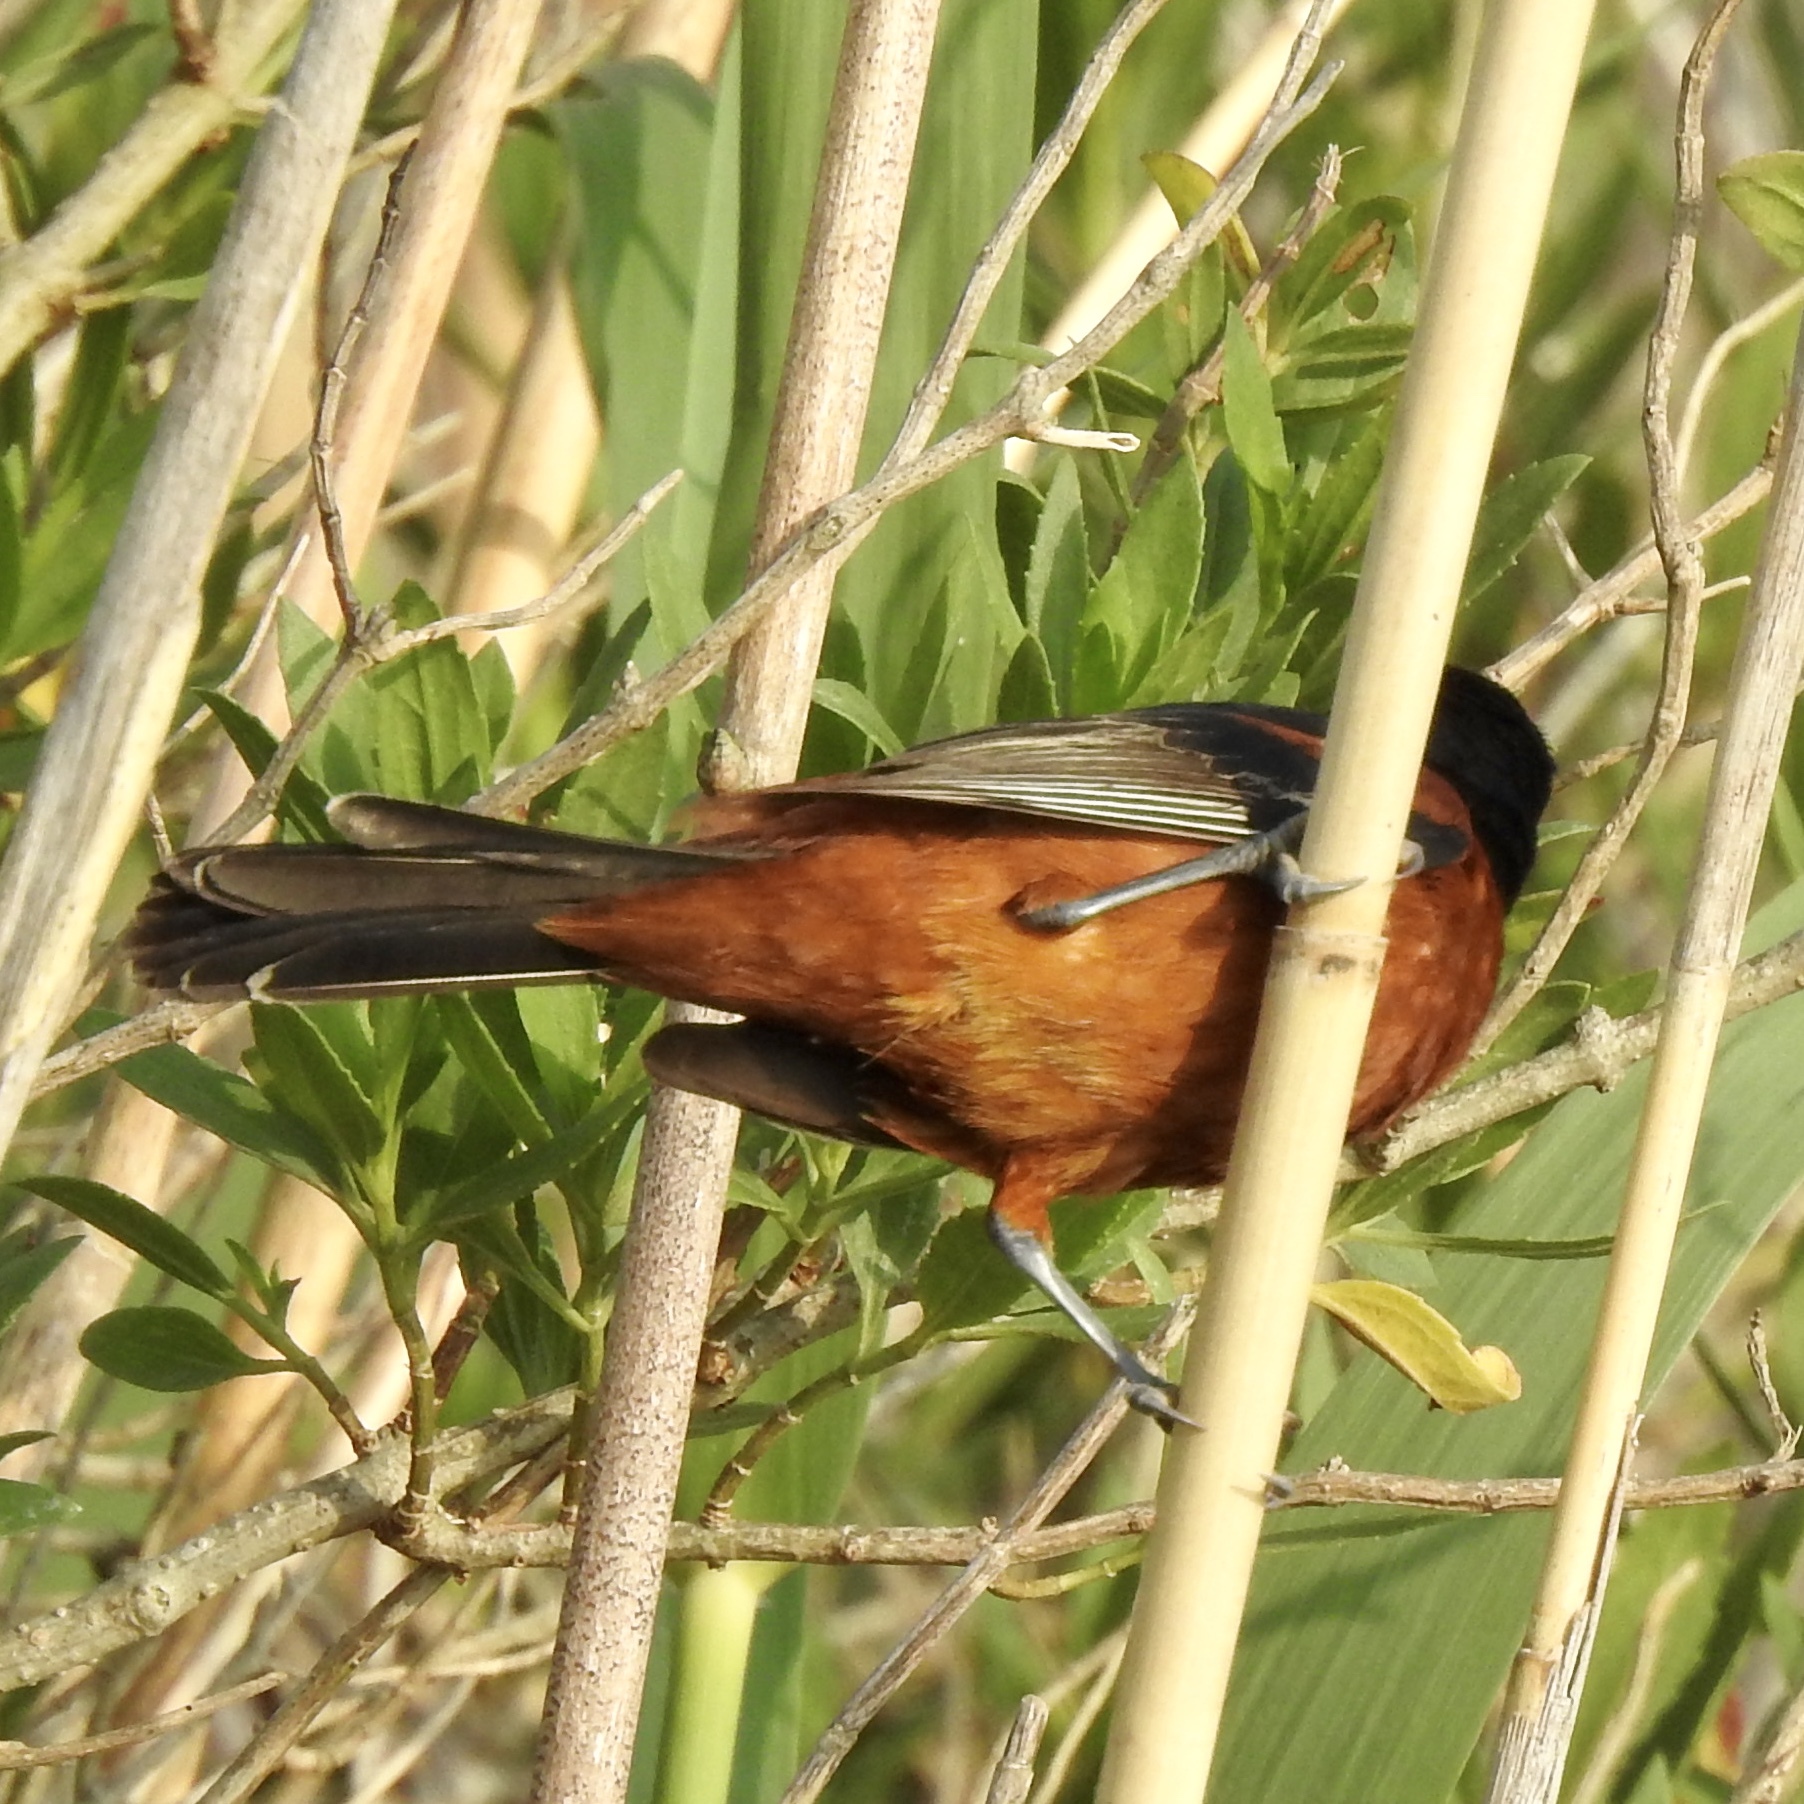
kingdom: Animalia
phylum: Chordata
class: Aves
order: Passeriformes
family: Icteridae
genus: Icterus
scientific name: Icterus spurius
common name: Orchard oriole
